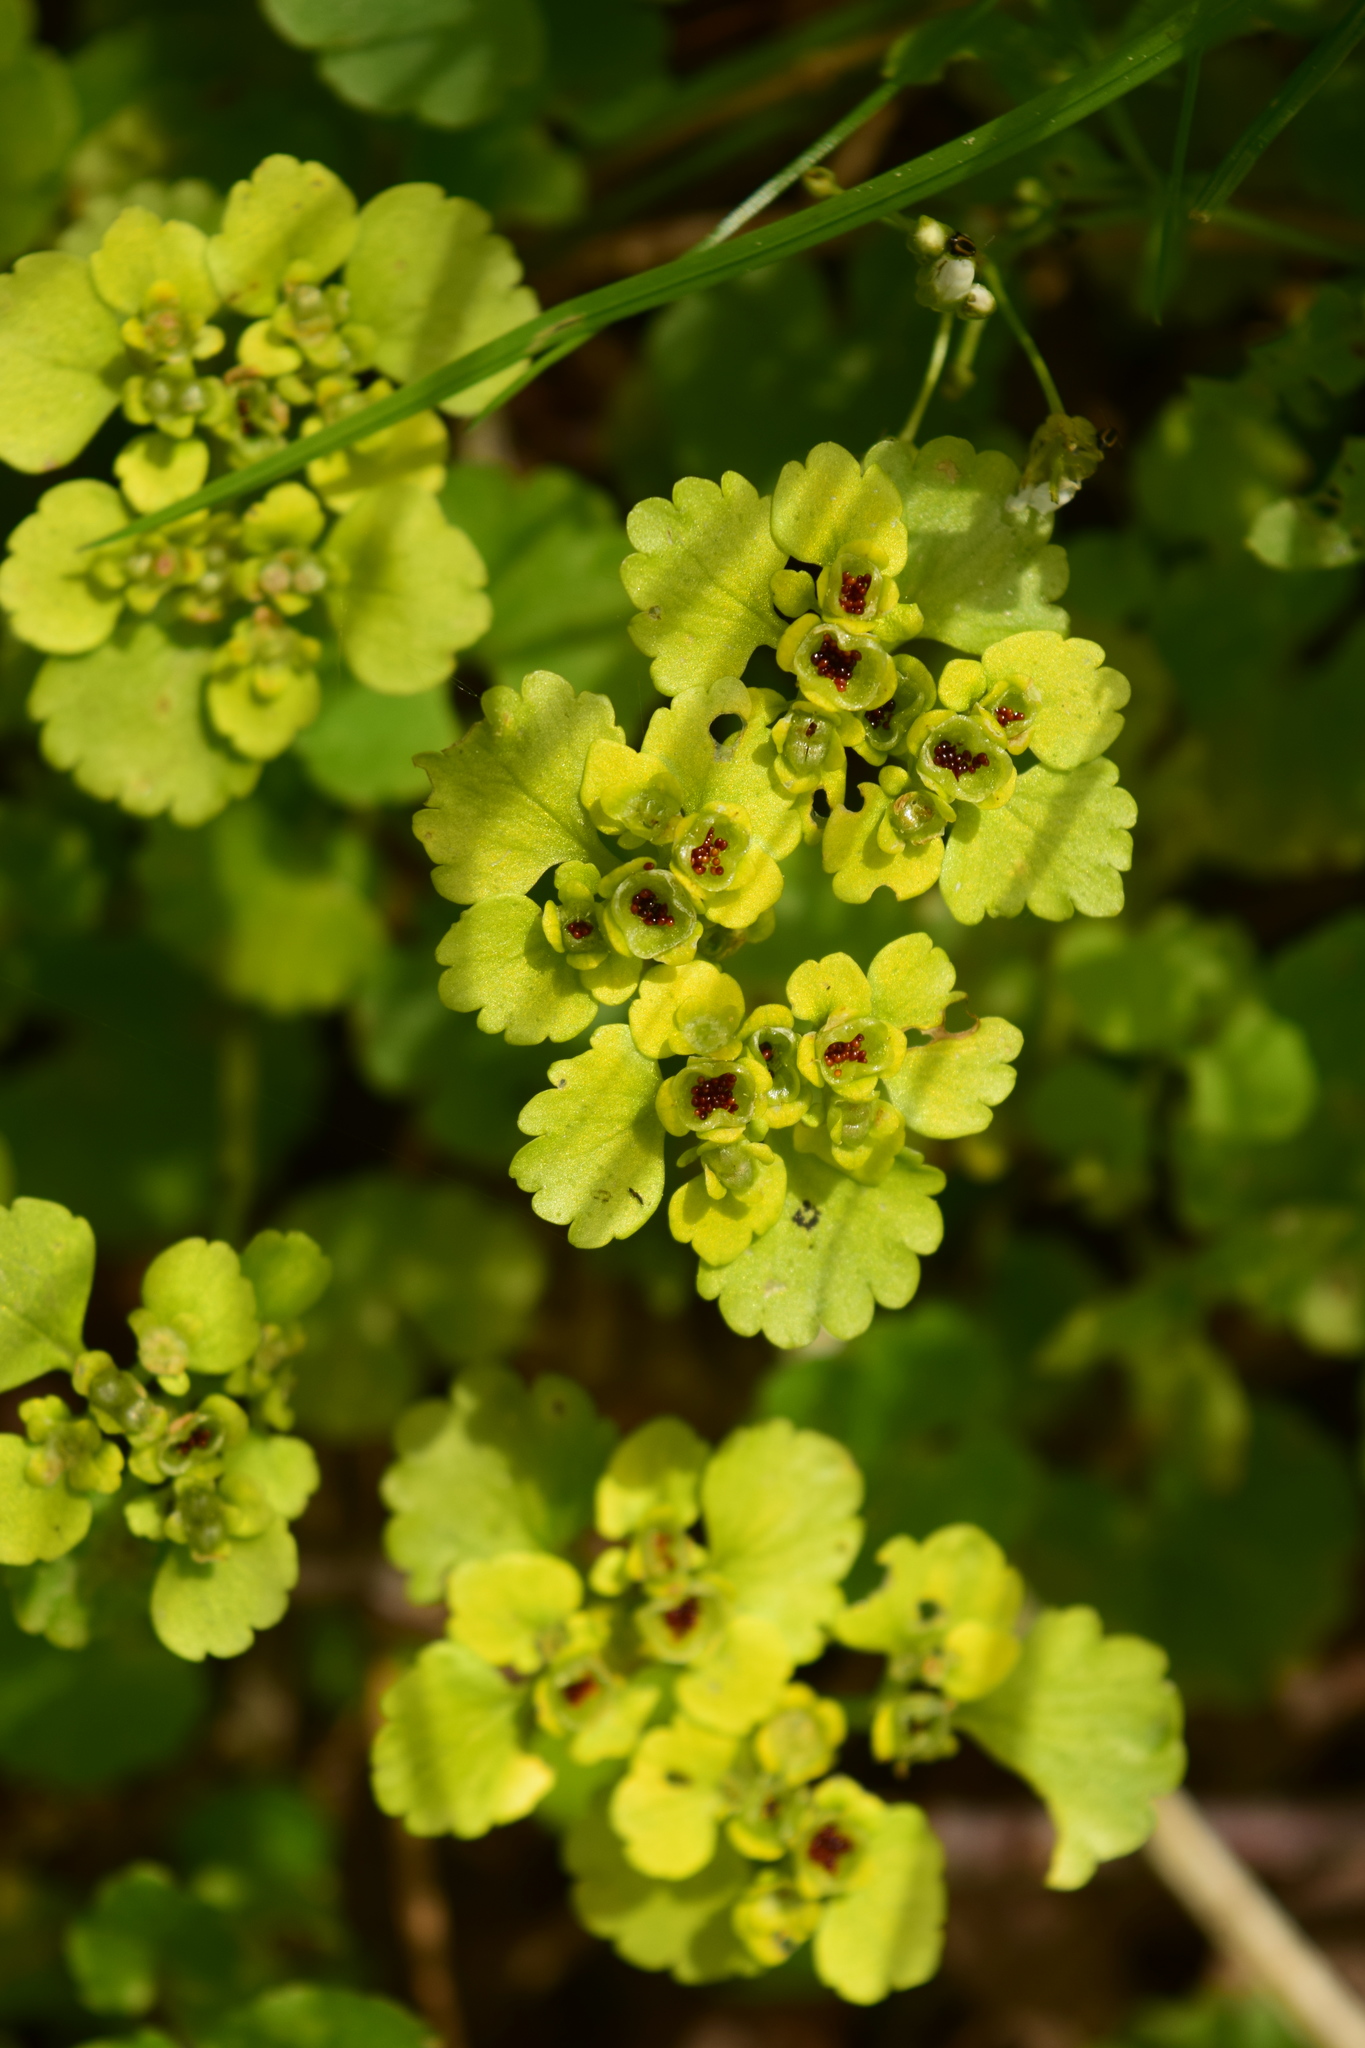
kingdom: Plantae
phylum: Tracheophyta
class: Magnoliopsida
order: Saxifragales
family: Saxifragaceae
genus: Chrysosplenium
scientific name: Chrysosplenium alternifolium
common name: Alternate-leaved golden-saxifrage
